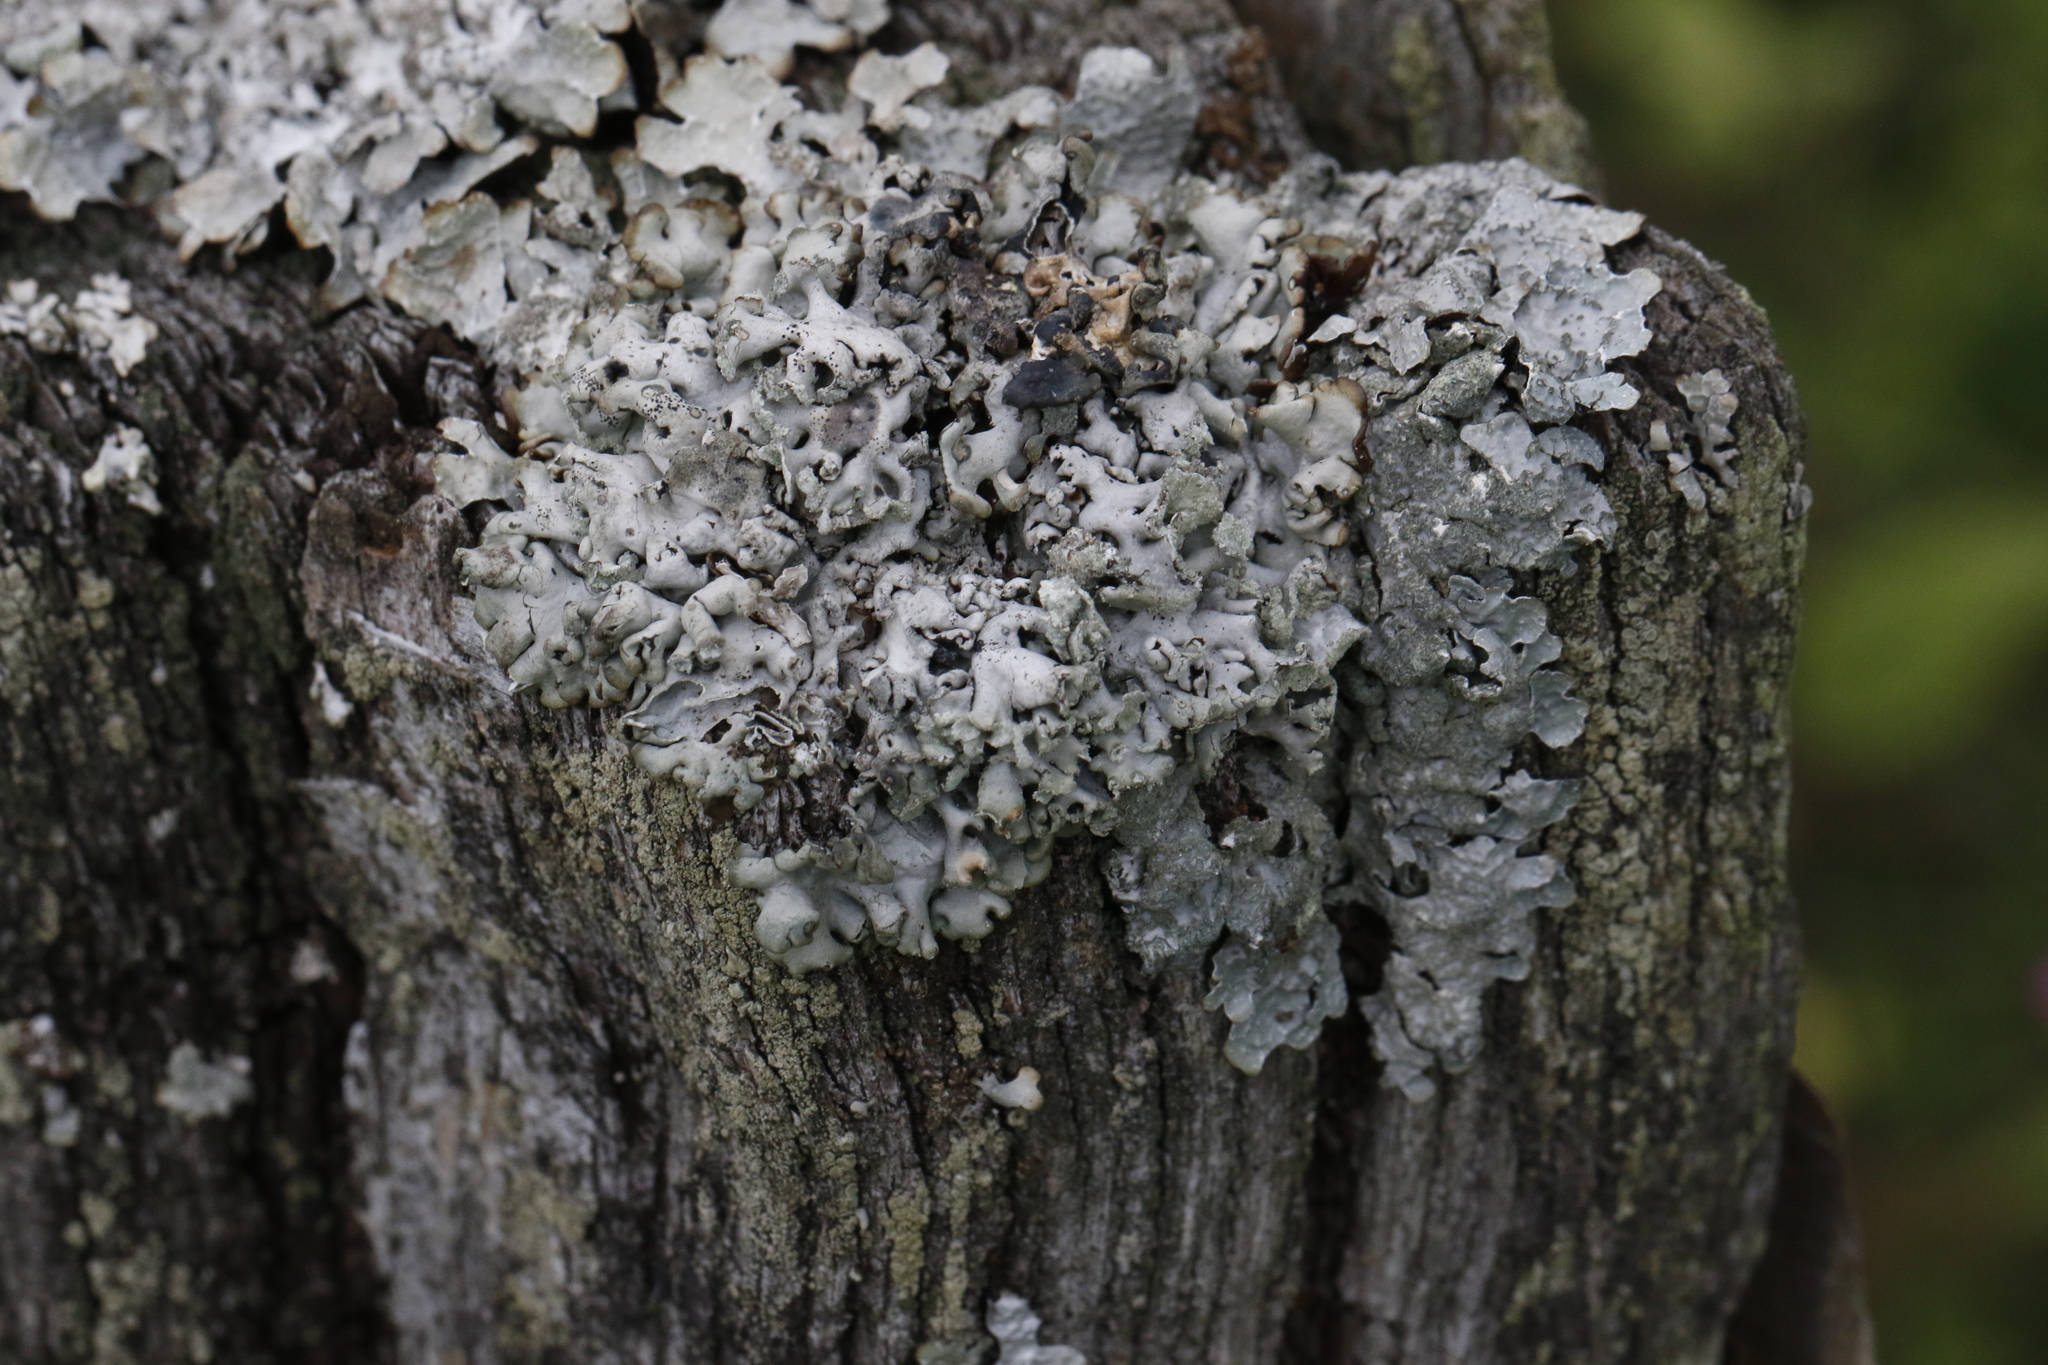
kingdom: Fungi
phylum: Ascomycota
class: Lecanoromycetes
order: Lecanorales
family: Parmeliaceae
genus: Hypogymnia
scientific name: Hypogymnia physodes
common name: Dark crottle
